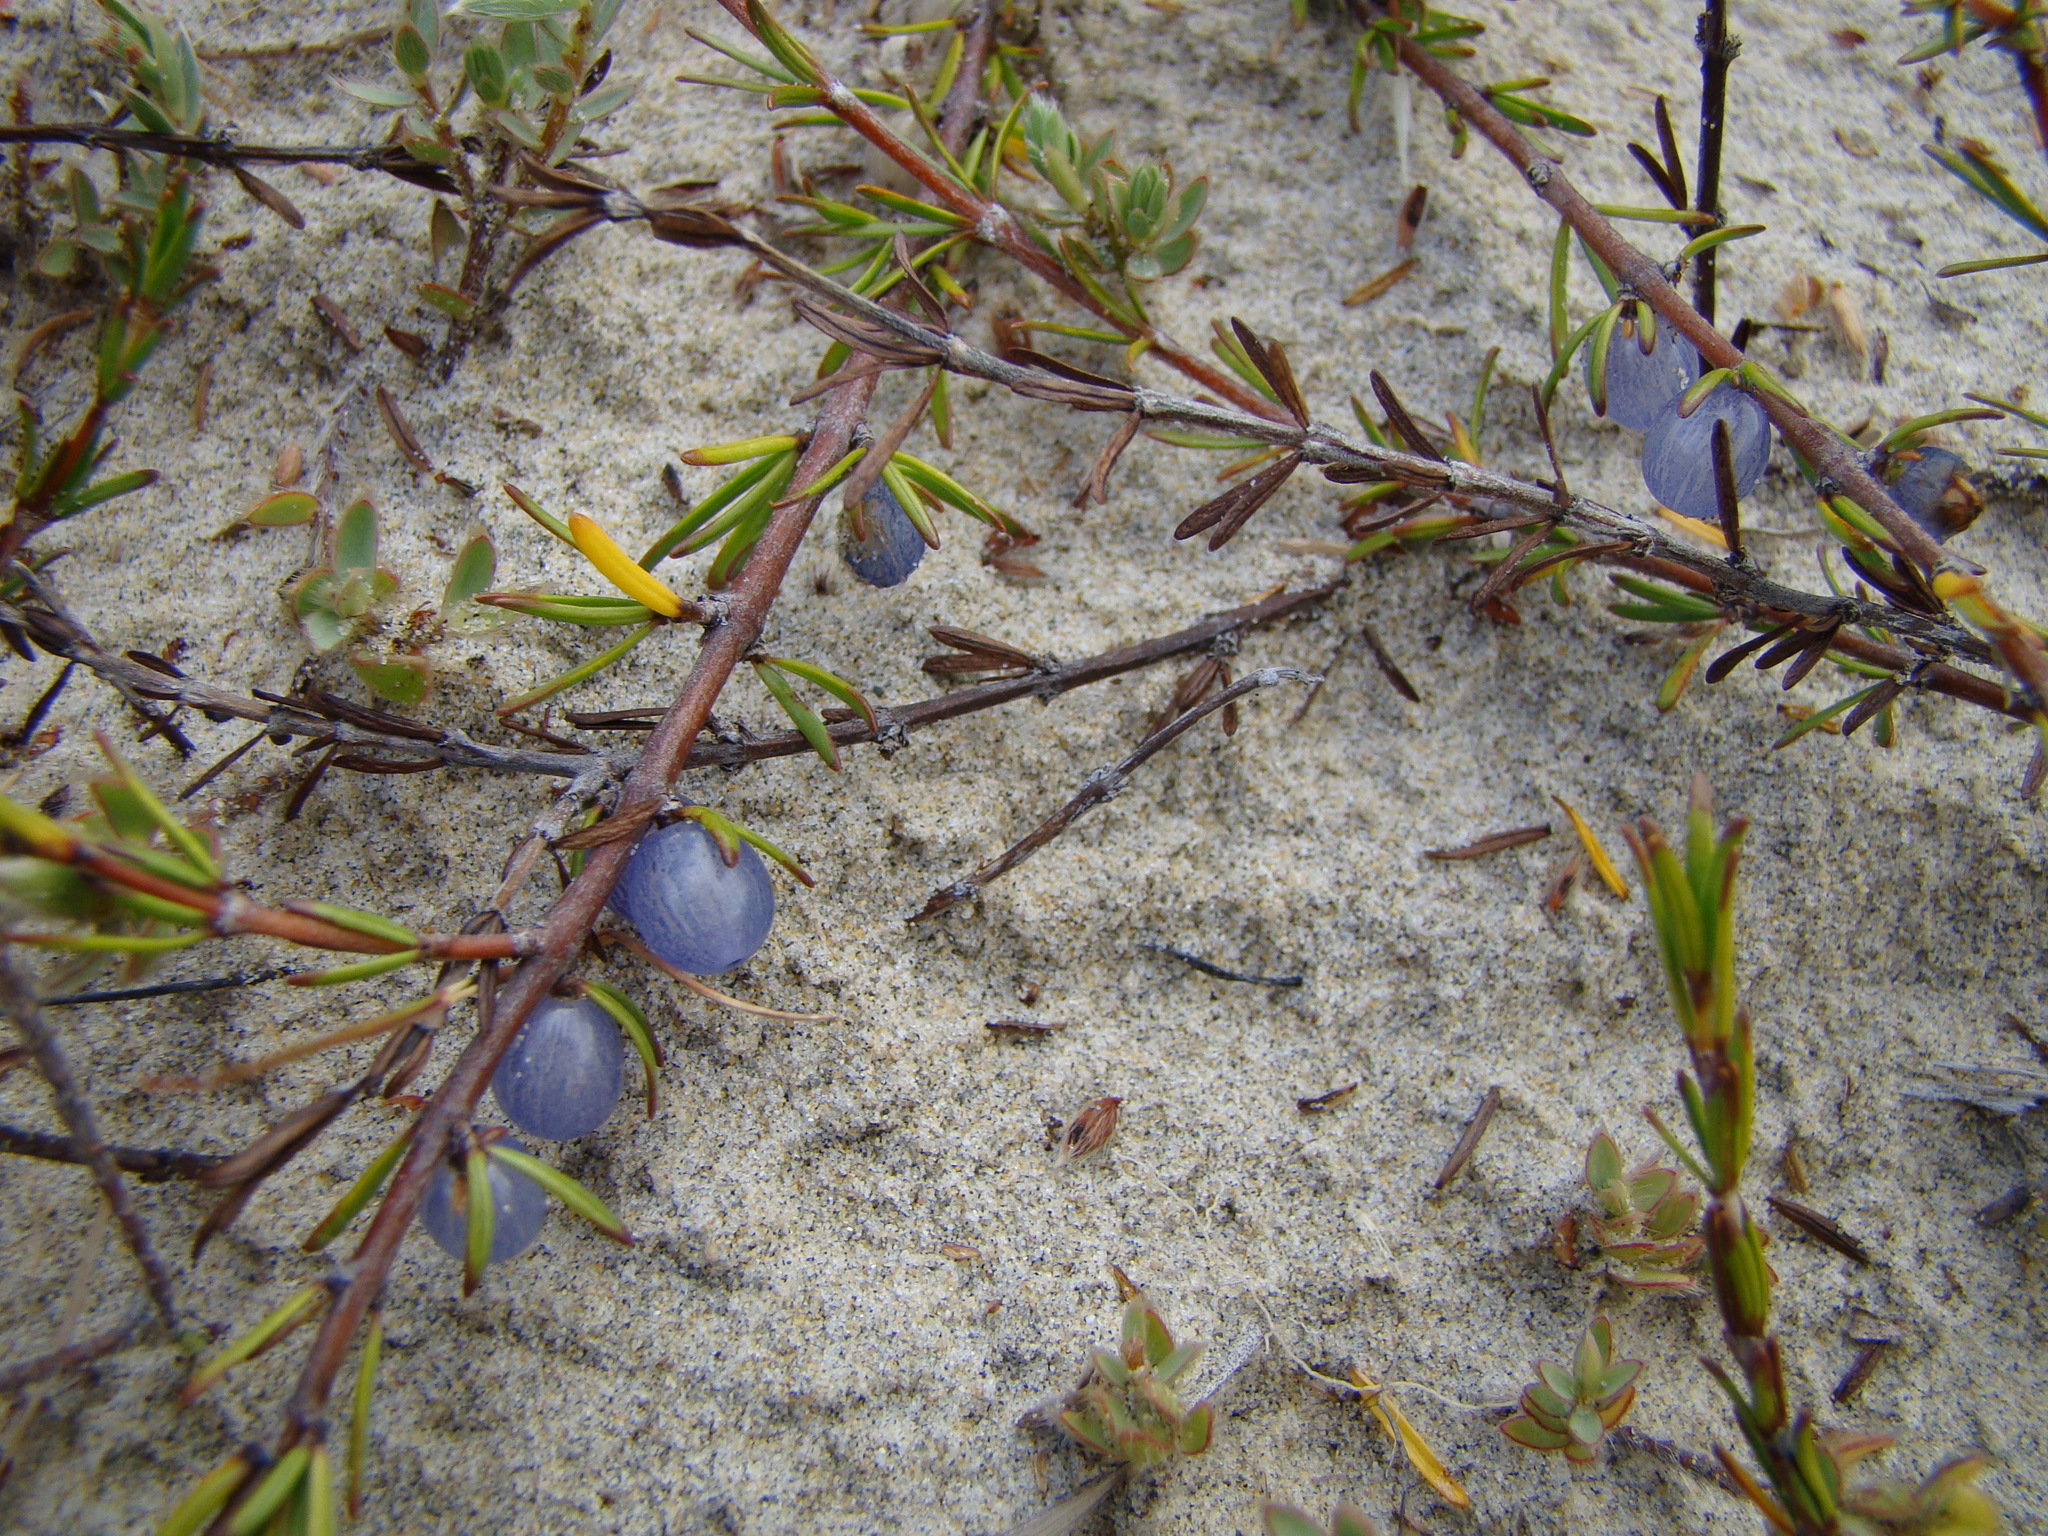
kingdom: Plantae
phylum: Tracheophyta
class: Magnoliopsida
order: Gentianales
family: Rubiaceae
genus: Coprosma
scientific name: Coprosma acerosa
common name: Sand coprosma
